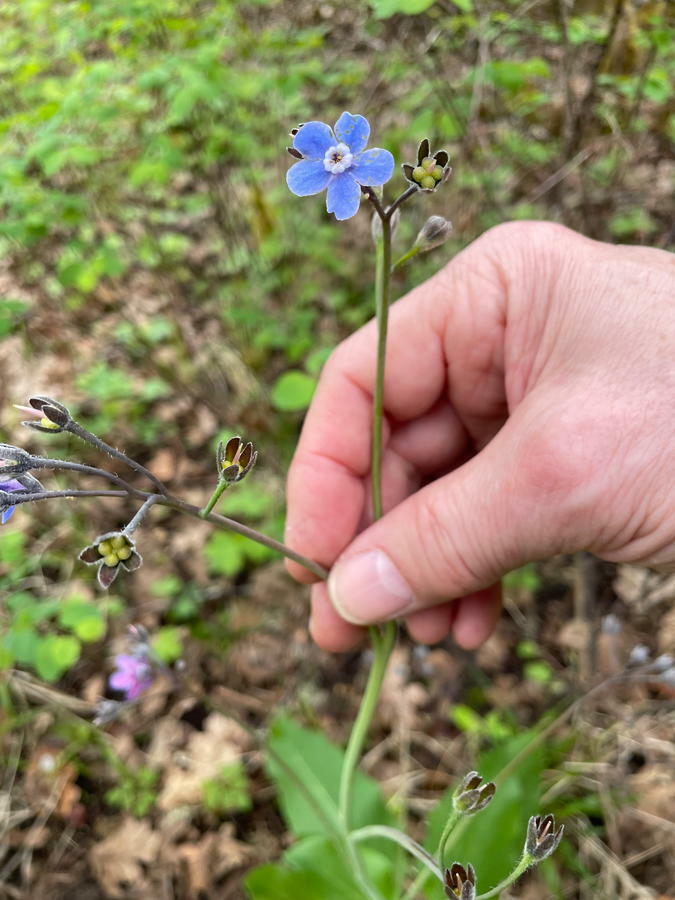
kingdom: Plantae
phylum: Tracheophyta
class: Magnoliopsida
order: Boraginales
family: Boraginaceae
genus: Adelinia
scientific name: Adelinia grande
